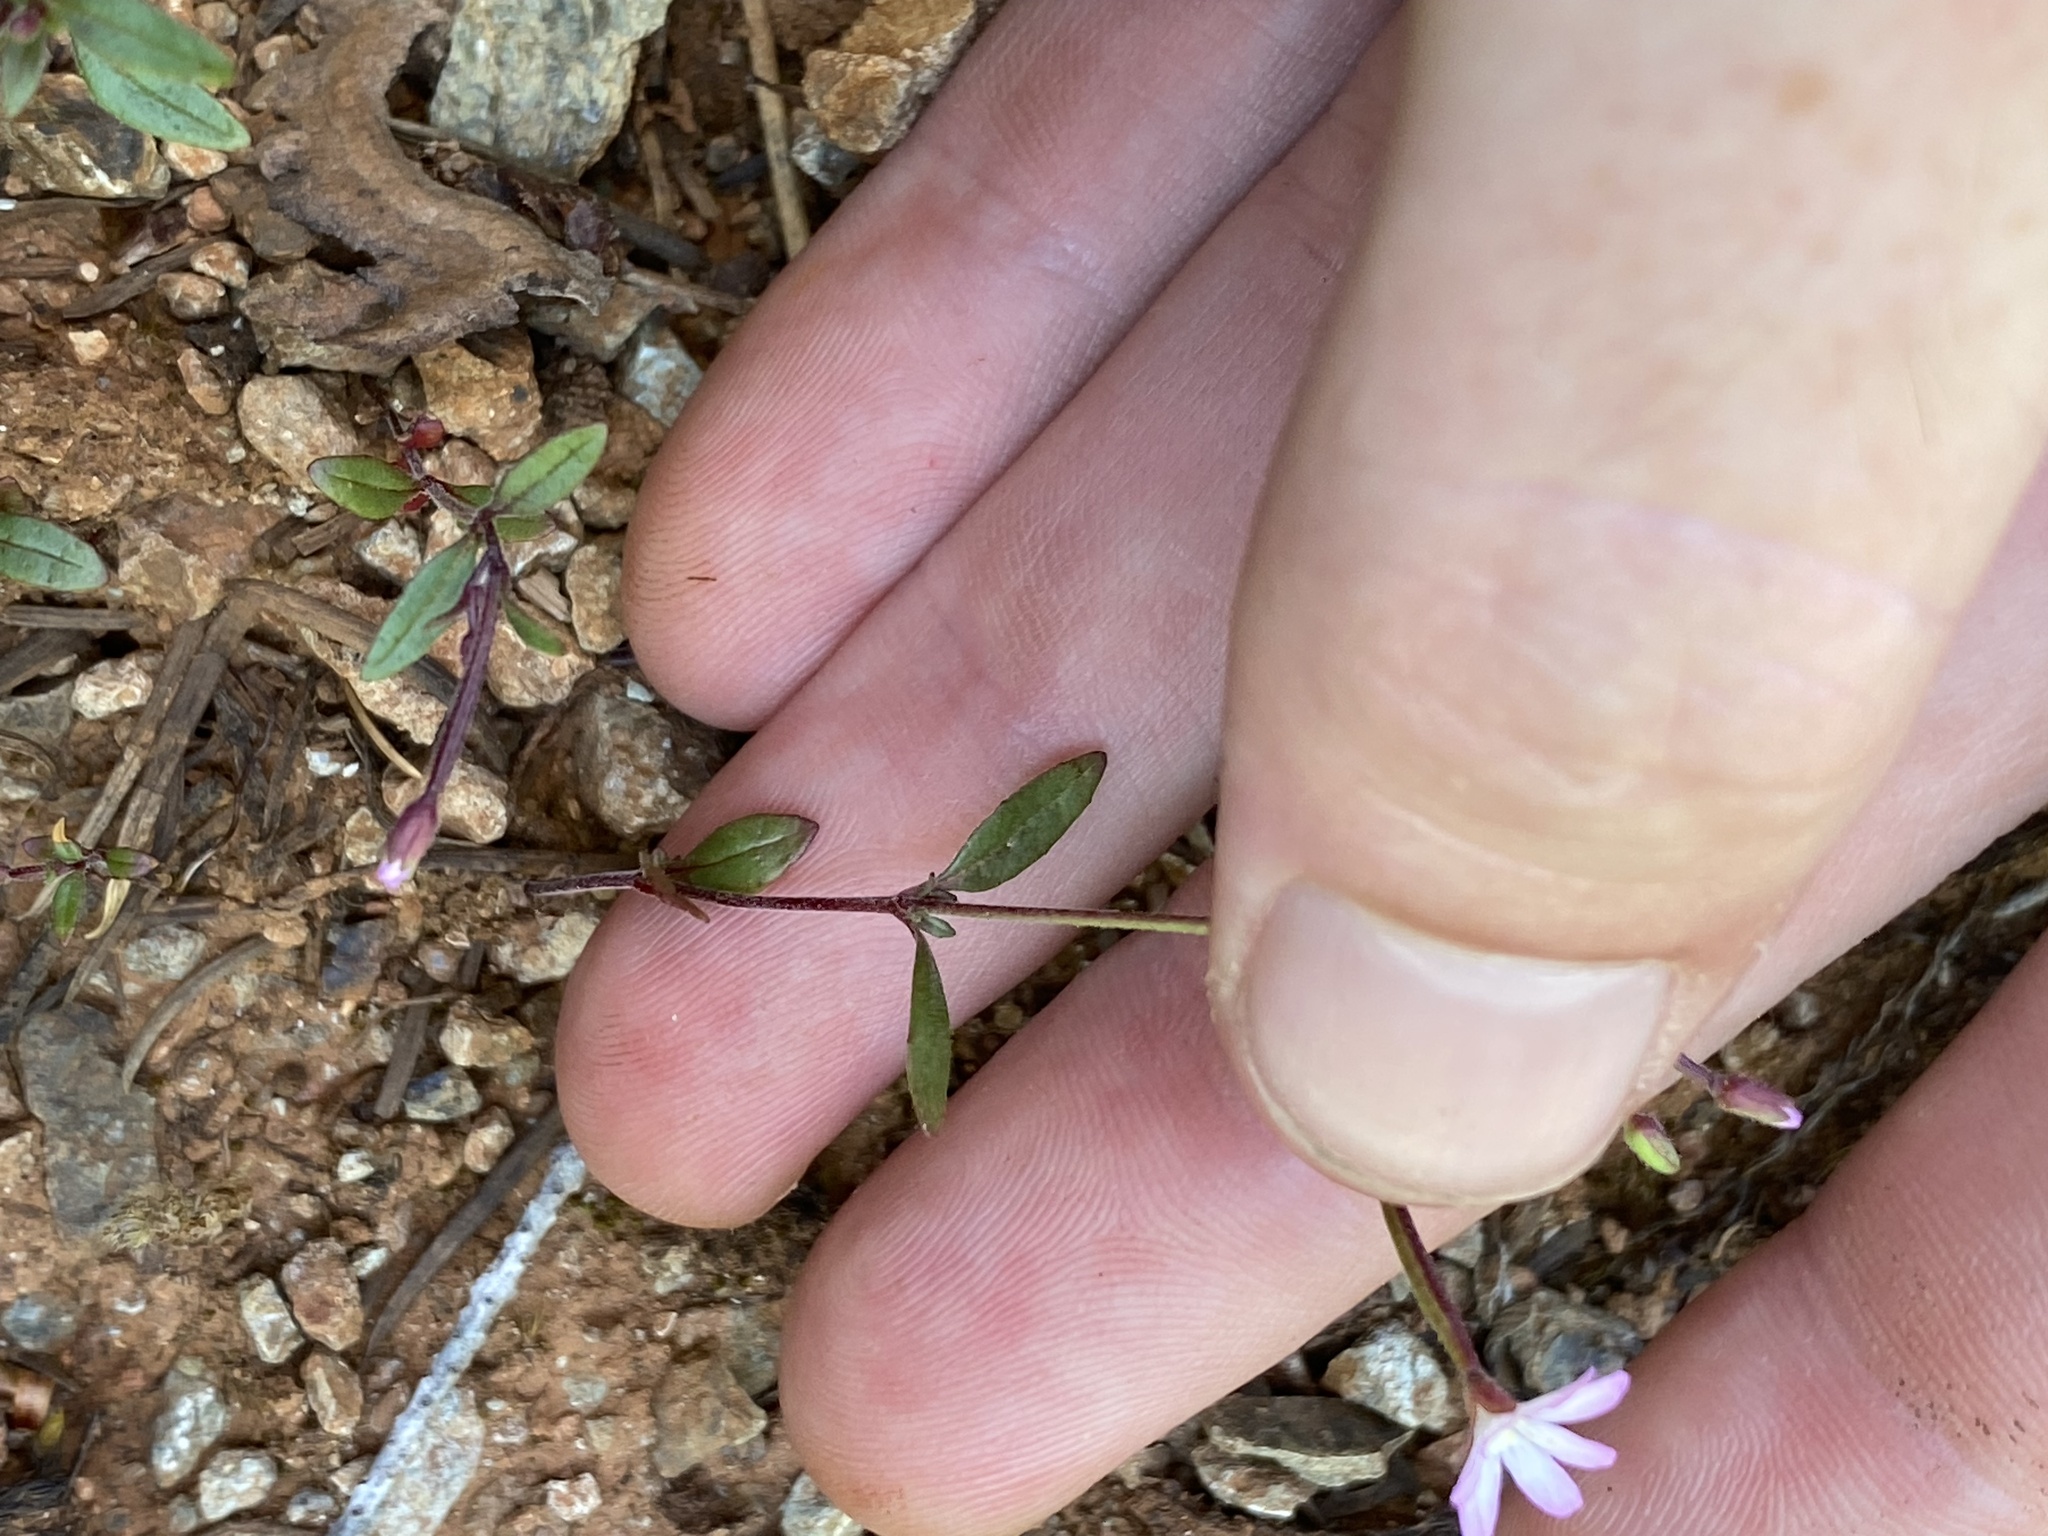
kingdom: Plantae
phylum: Tracheophyta
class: Magnoliopsida
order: Myrtales
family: Onagraceae
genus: Epilobium
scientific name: Epilobium minutum
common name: Chaparral willowherb
